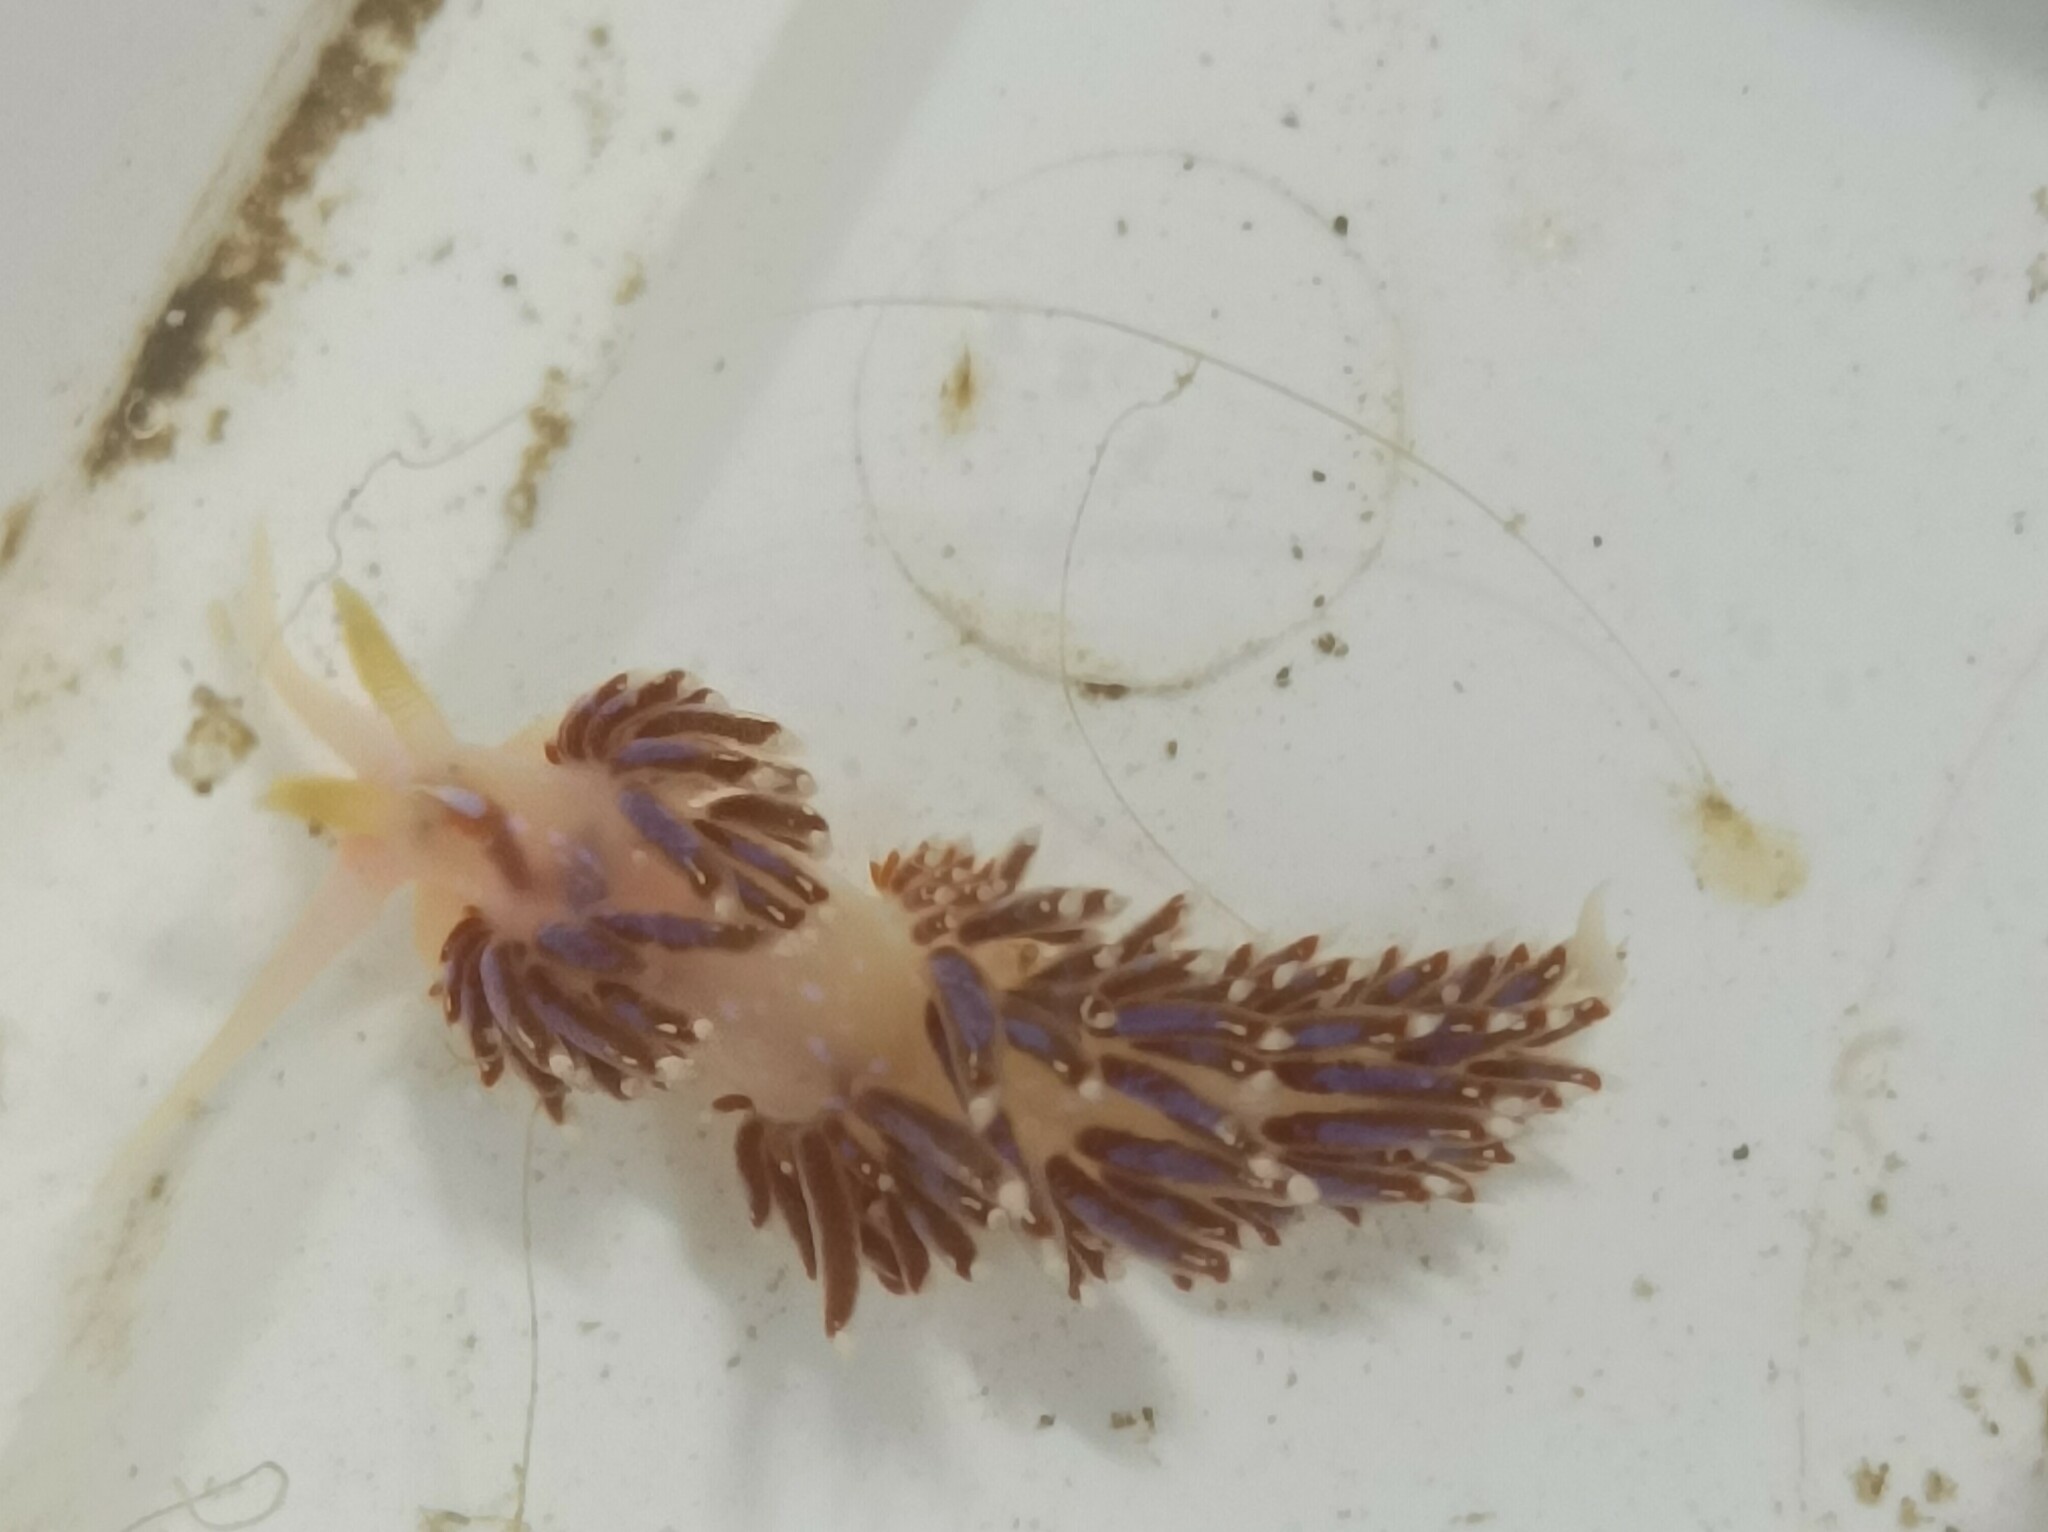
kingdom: Animalia
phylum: Mollusca
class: Gastropoda
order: Nudibranchia
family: Facelinidae
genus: Facelina
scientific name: Facelina auriculata
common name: Slender facelina
